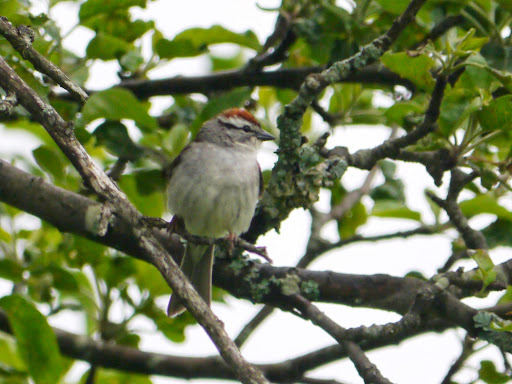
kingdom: Animalia
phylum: Chordata
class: Aves
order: Passeriformes
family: Passerellidae
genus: Spizella
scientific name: Spizella passerina
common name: Chipping sparrow
